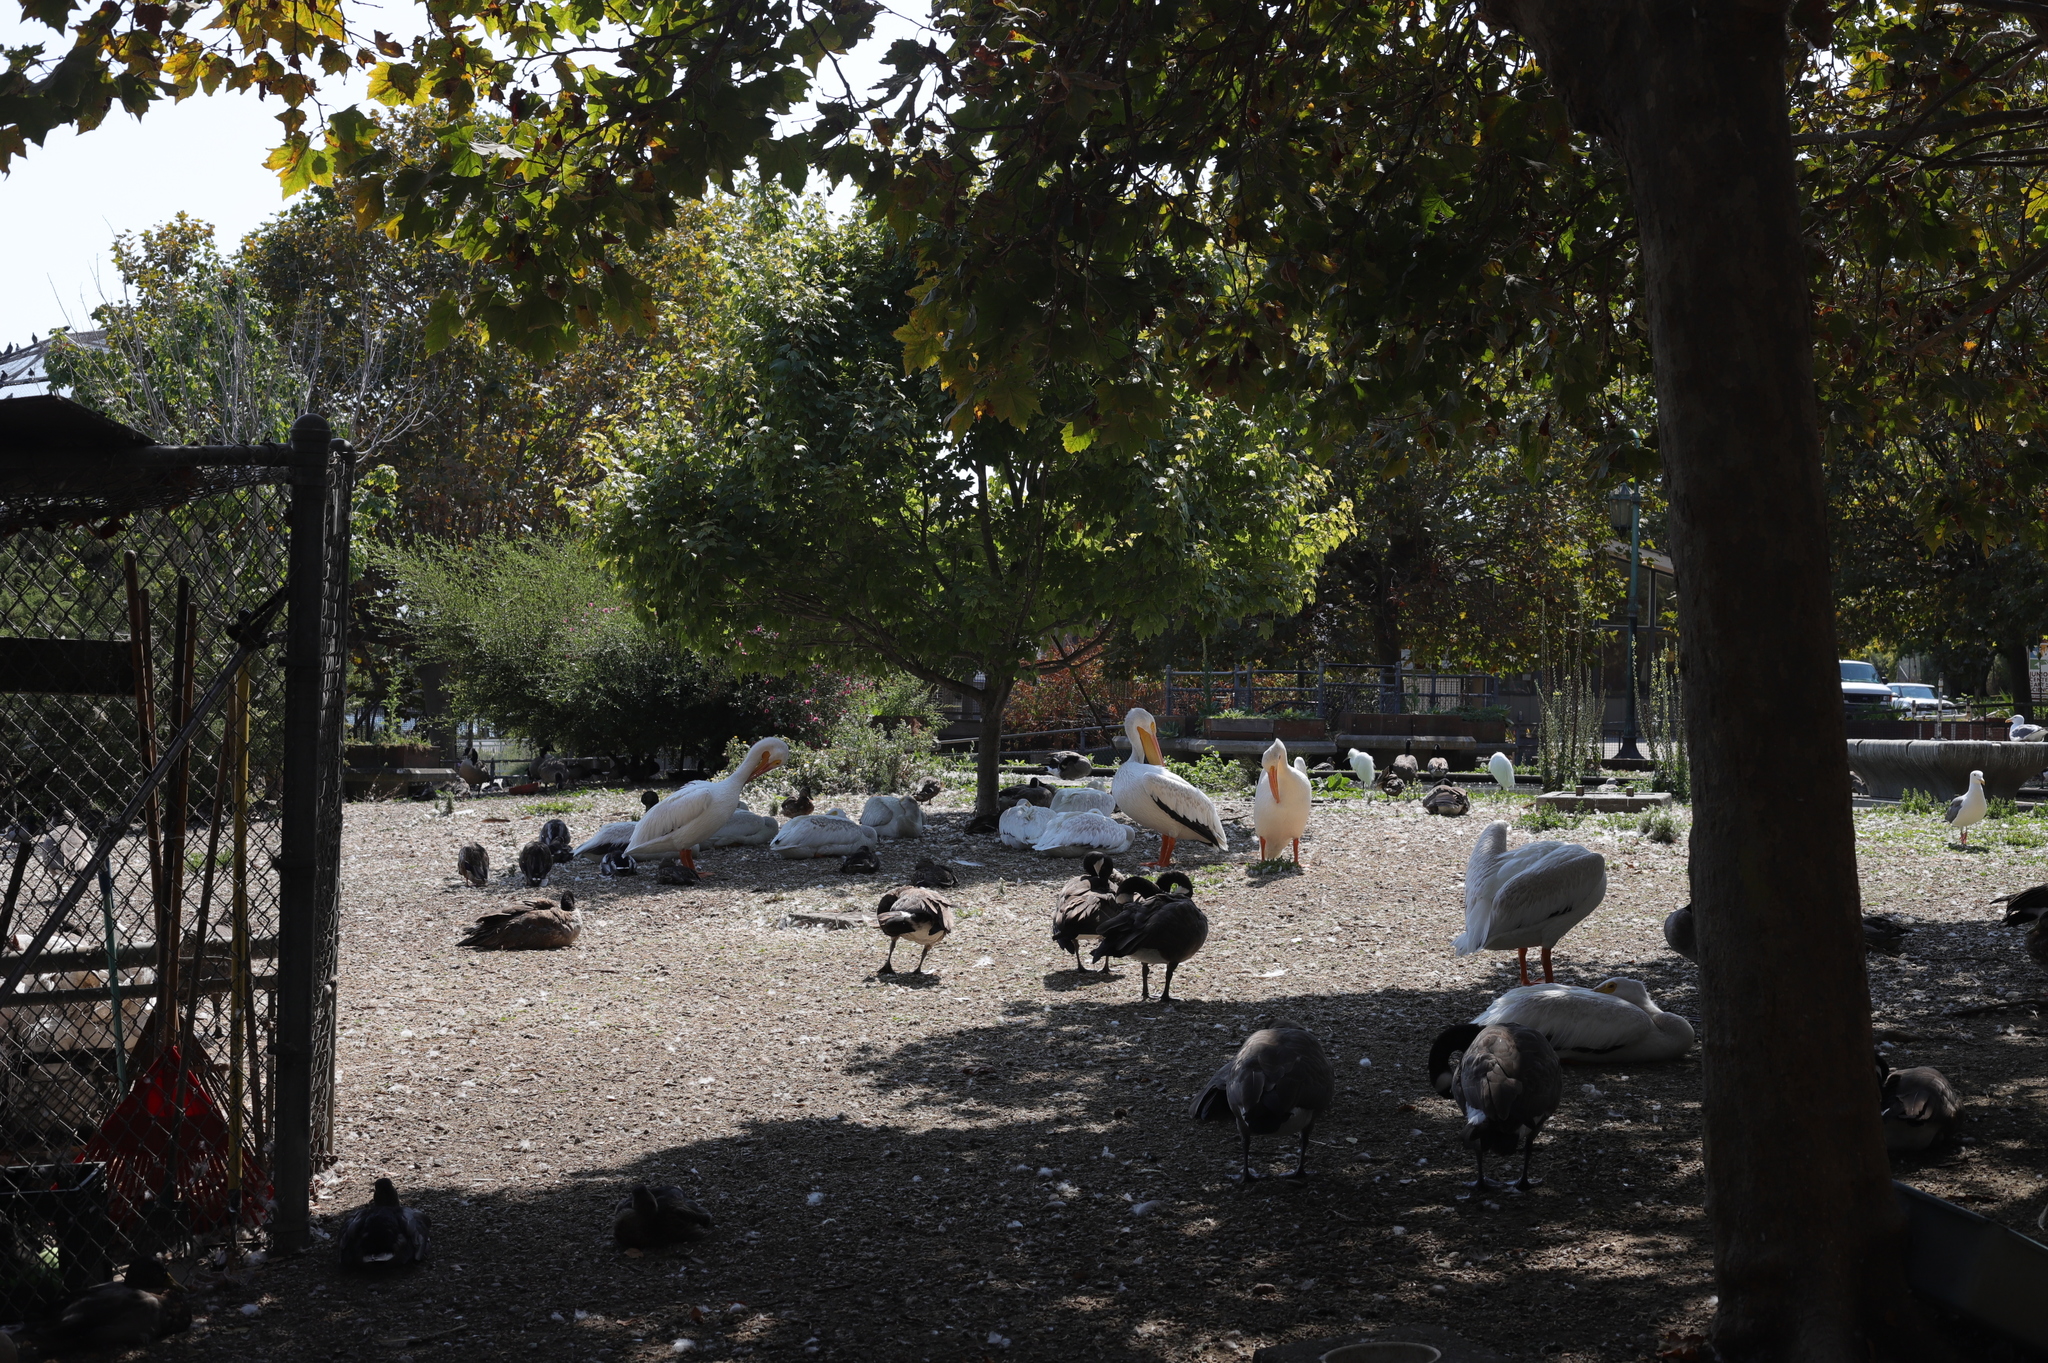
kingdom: Animalia
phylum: Chordata
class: Aves
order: Pelecaniformes
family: Pelecanidae
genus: Pelecanus
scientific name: Pelecanus erythrorhynchos
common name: American white pelican
